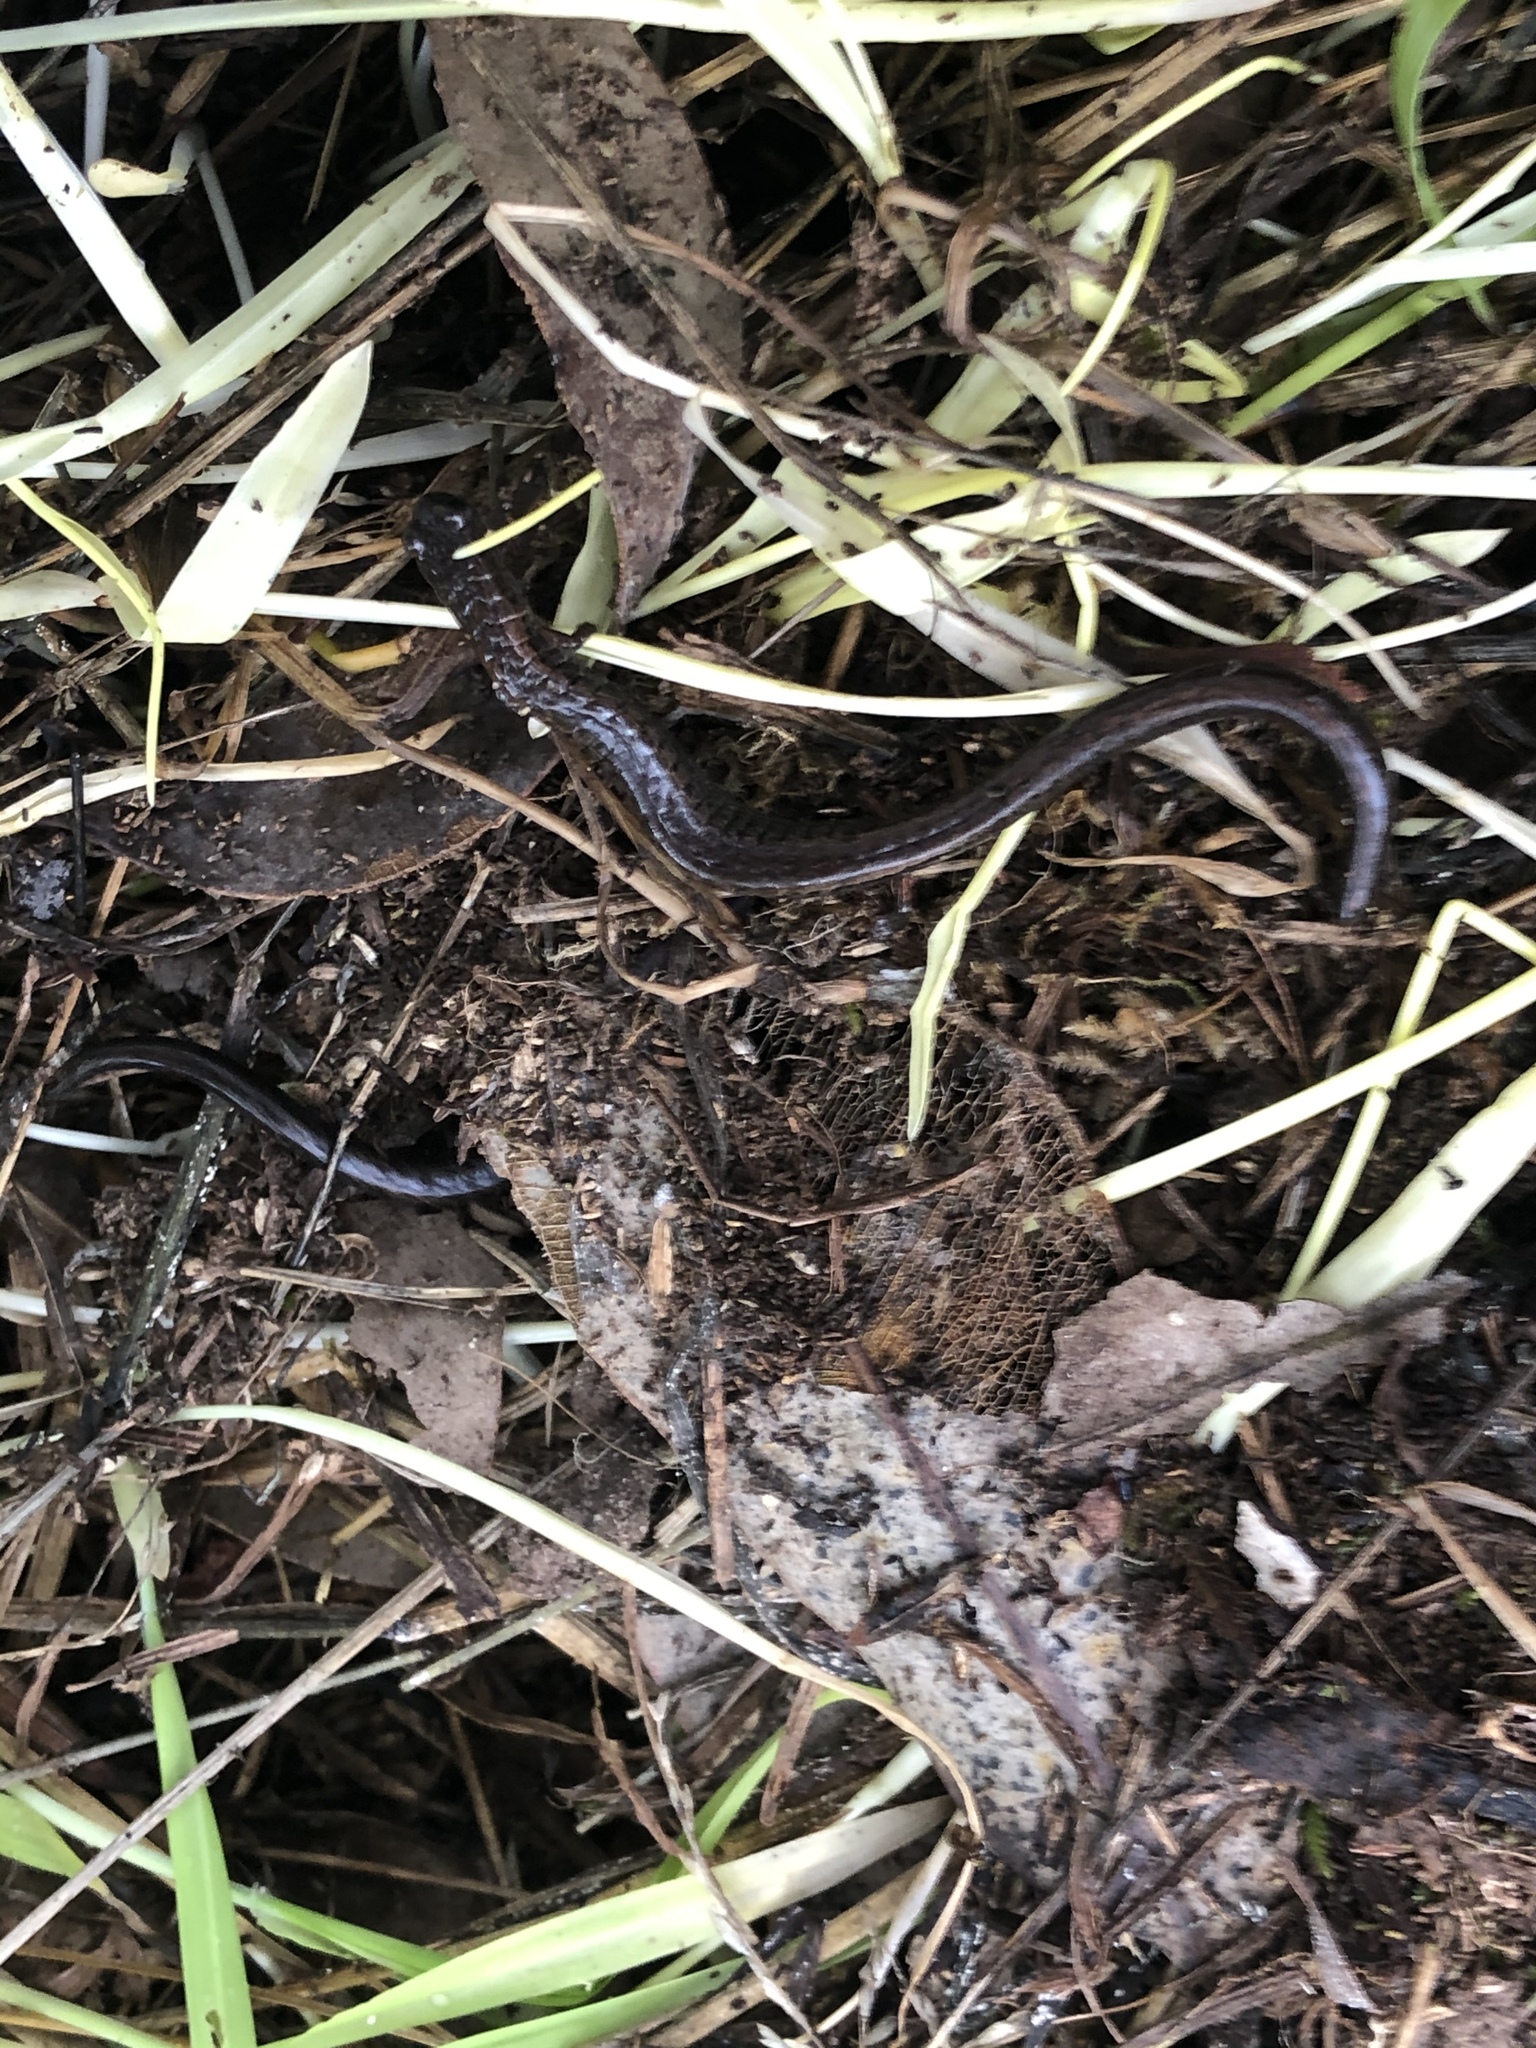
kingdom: Animalia
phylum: Chordata
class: Amphibia
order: Caudata
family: Plethodontidae
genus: Batrachoseps
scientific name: Batrachoseps attenuatus
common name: California slender salamander
